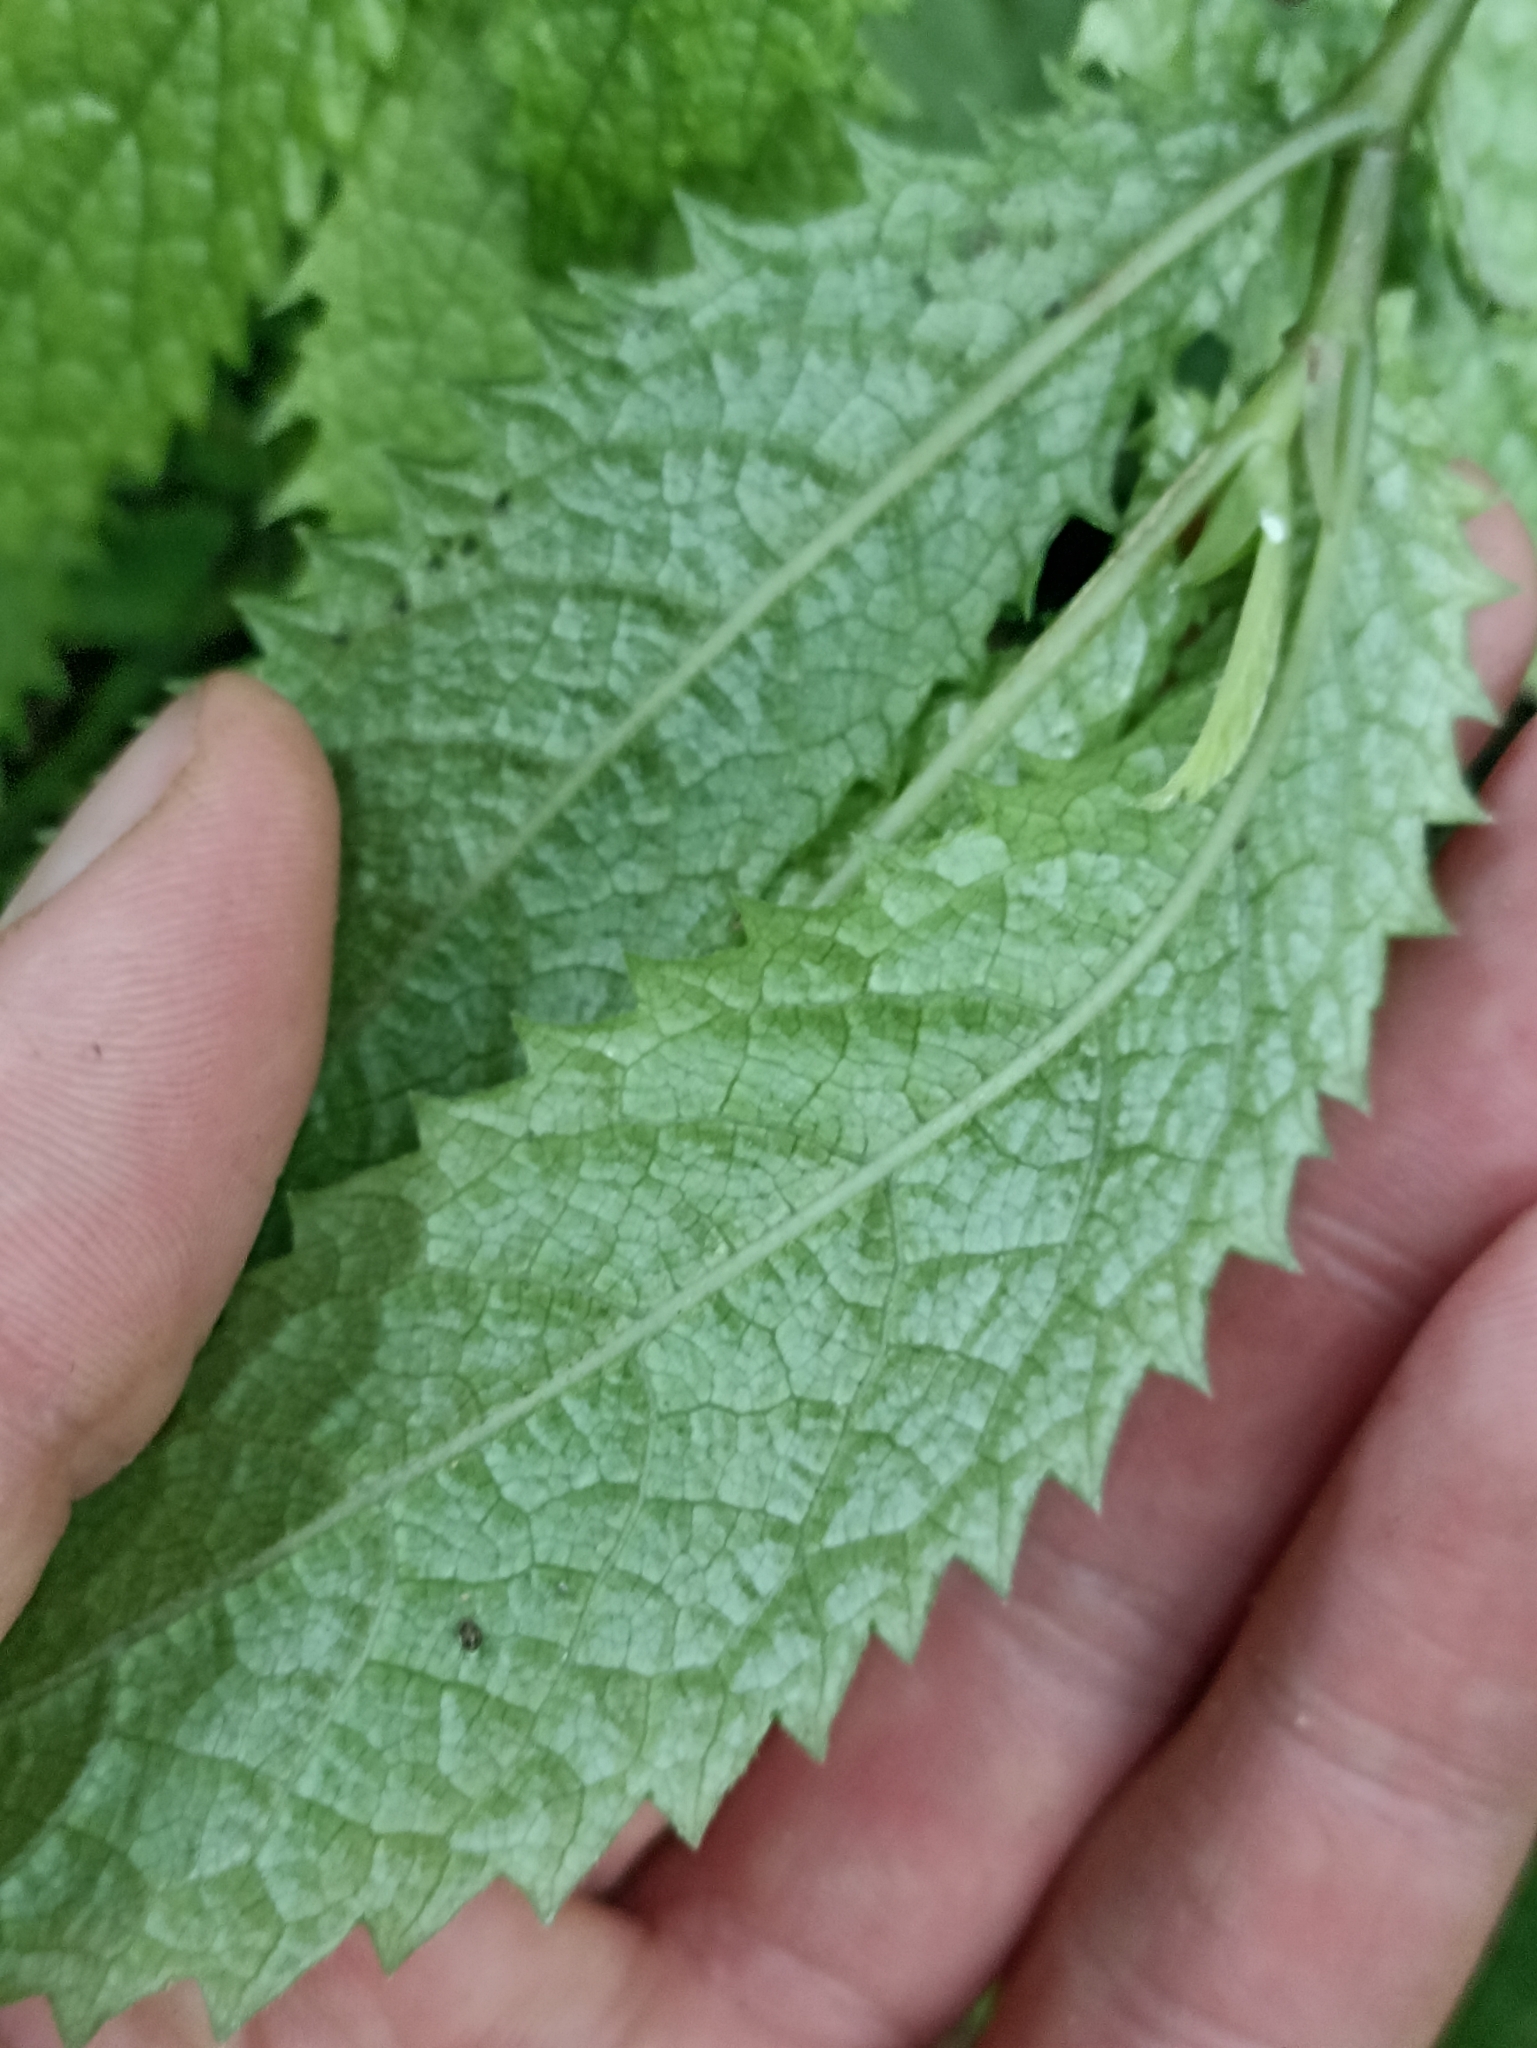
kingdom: Plantae
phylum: Tracheophyta
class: Magnoliopsida
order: Rosales
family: Urticaceae
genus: Elatostema
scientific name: Elatostema rugosum
